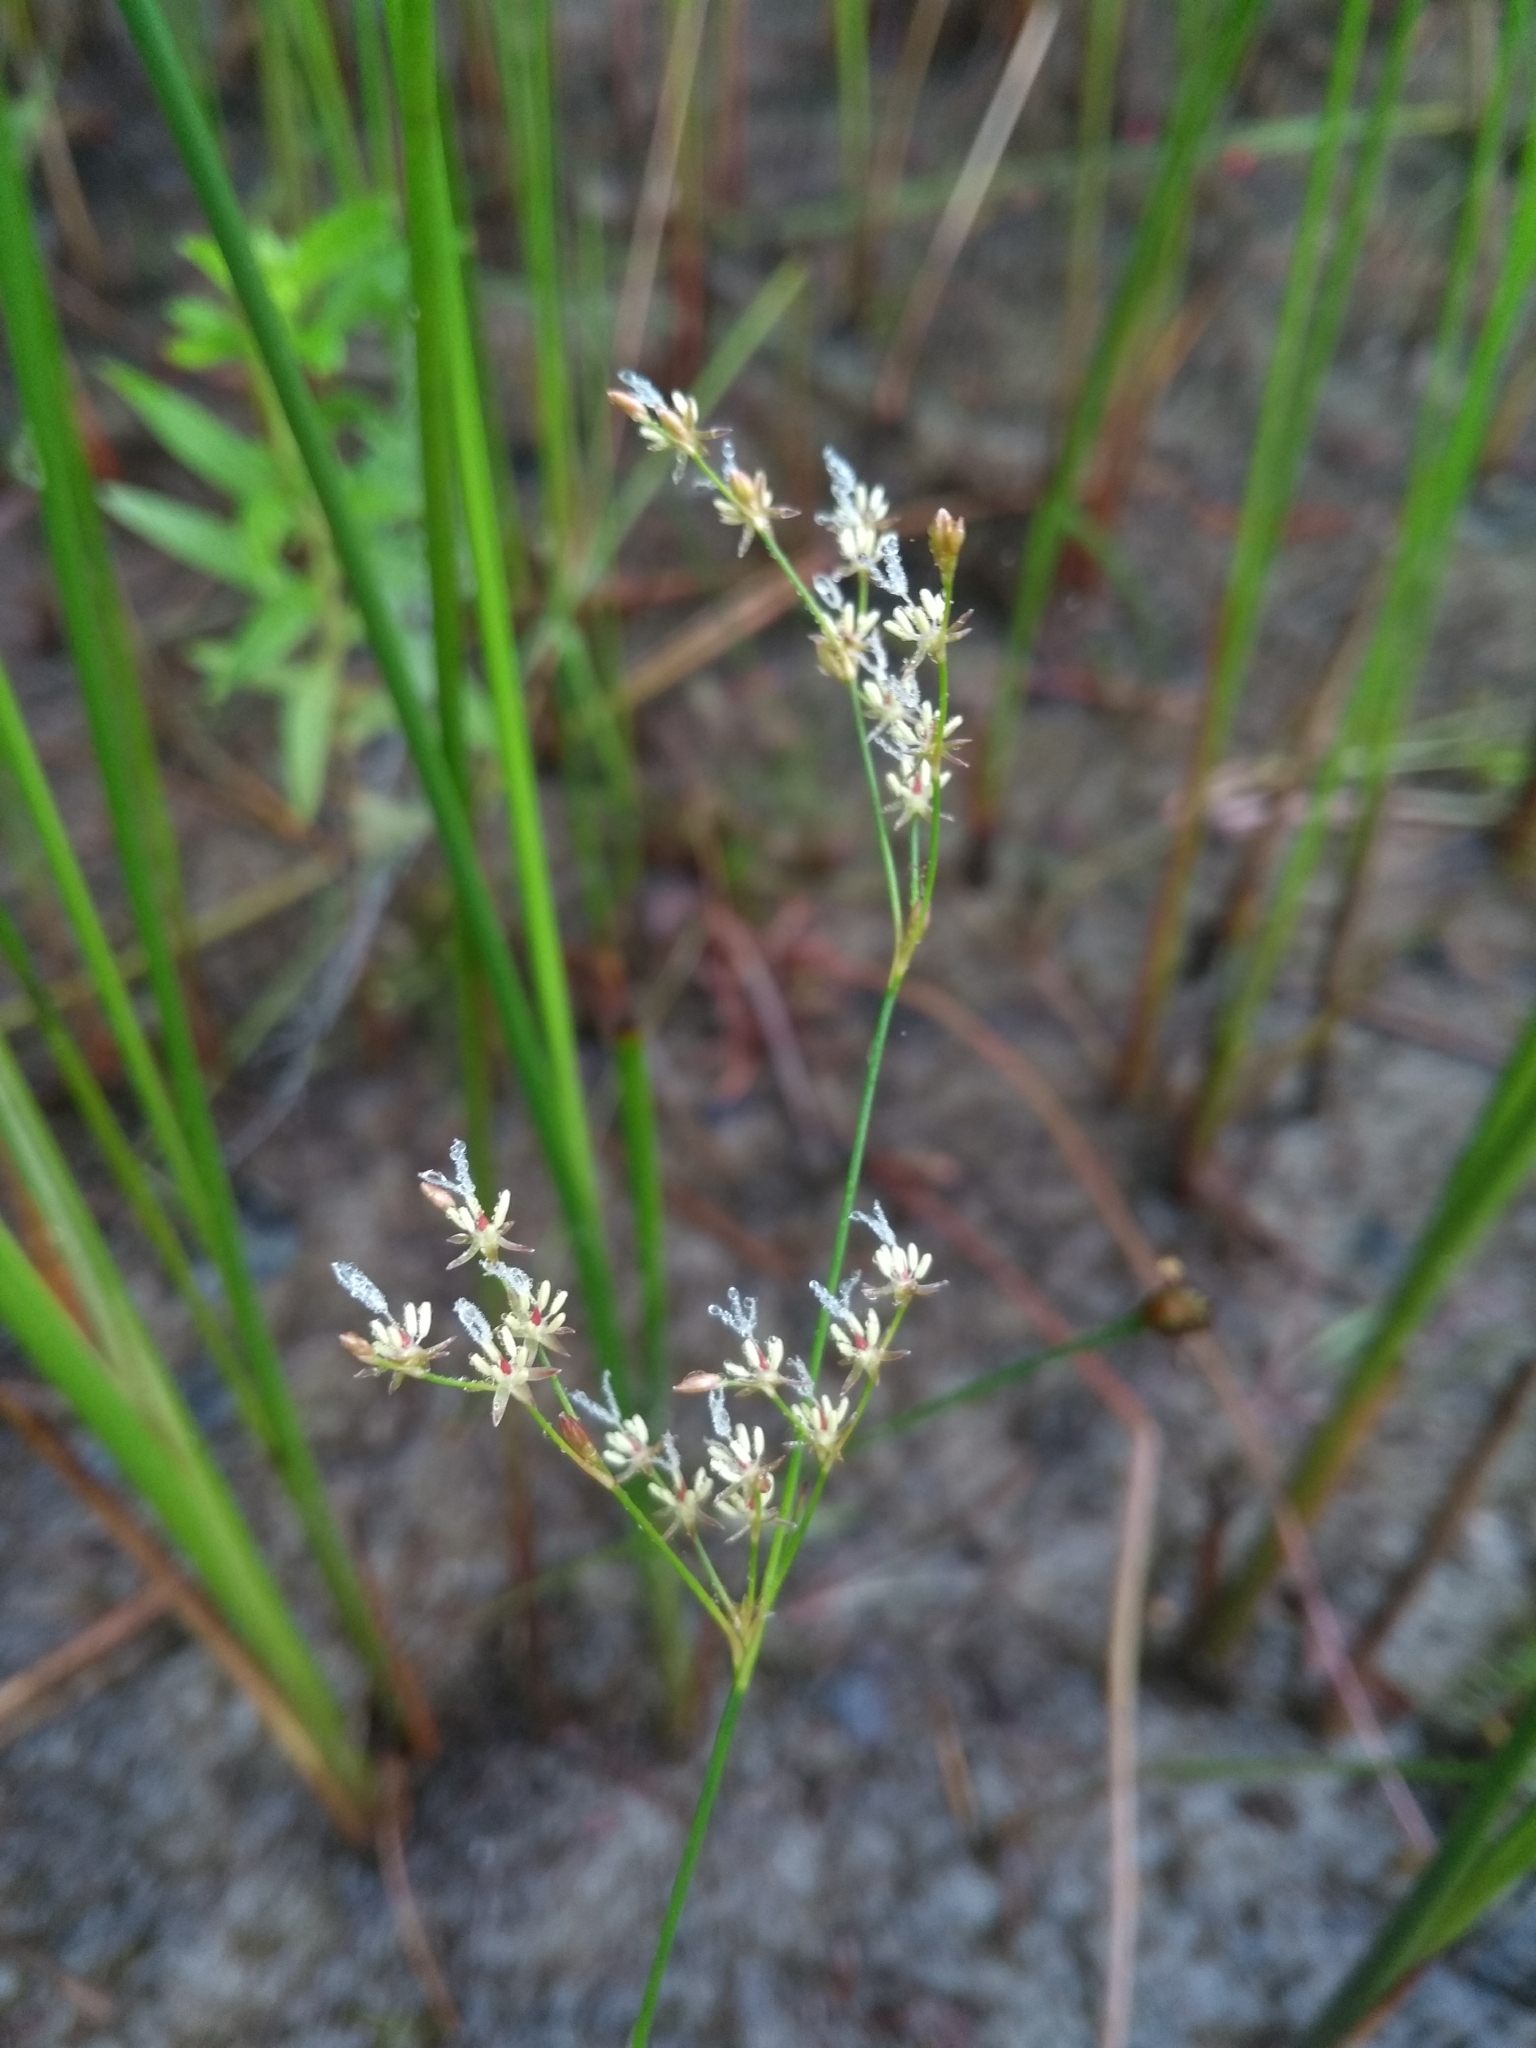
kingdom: Plantae
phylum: Tracheophyta
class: Liliopsida
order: Poales
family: Juncaceae
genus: Juncus
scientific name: Juncus pelocarpus
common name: Brown-fruited rush
